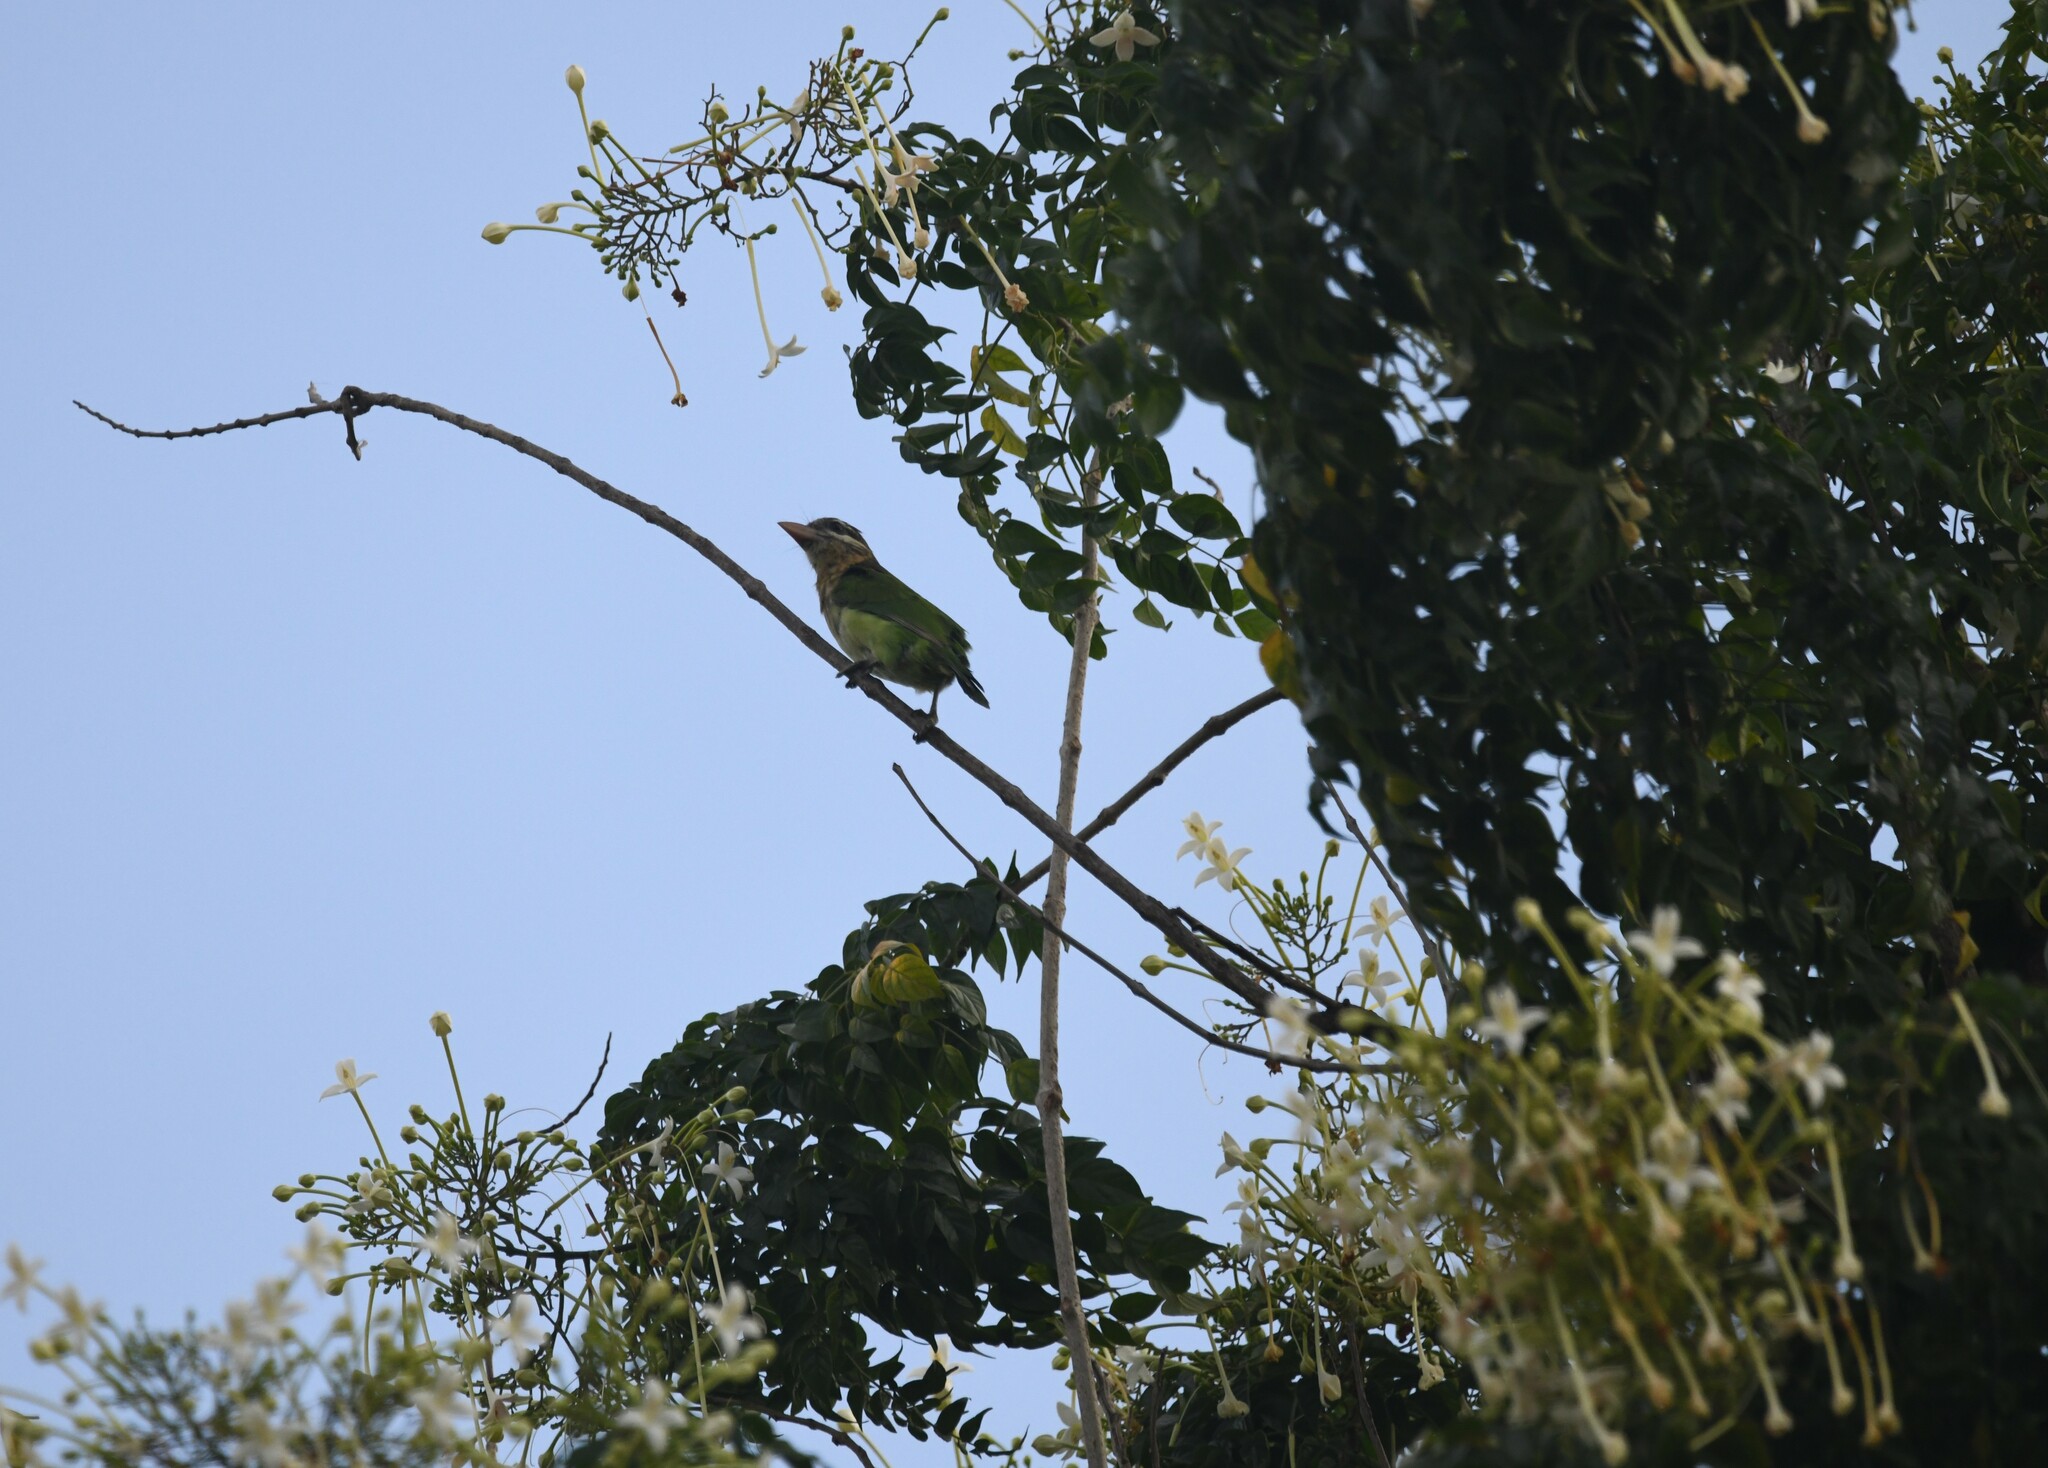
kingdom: Animalia
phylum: Chordata
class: Aves
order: Piciformes
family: Megalaimidae
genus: Psilopogon
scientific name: Psilopogon viridis
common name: White-cheeked barbet
